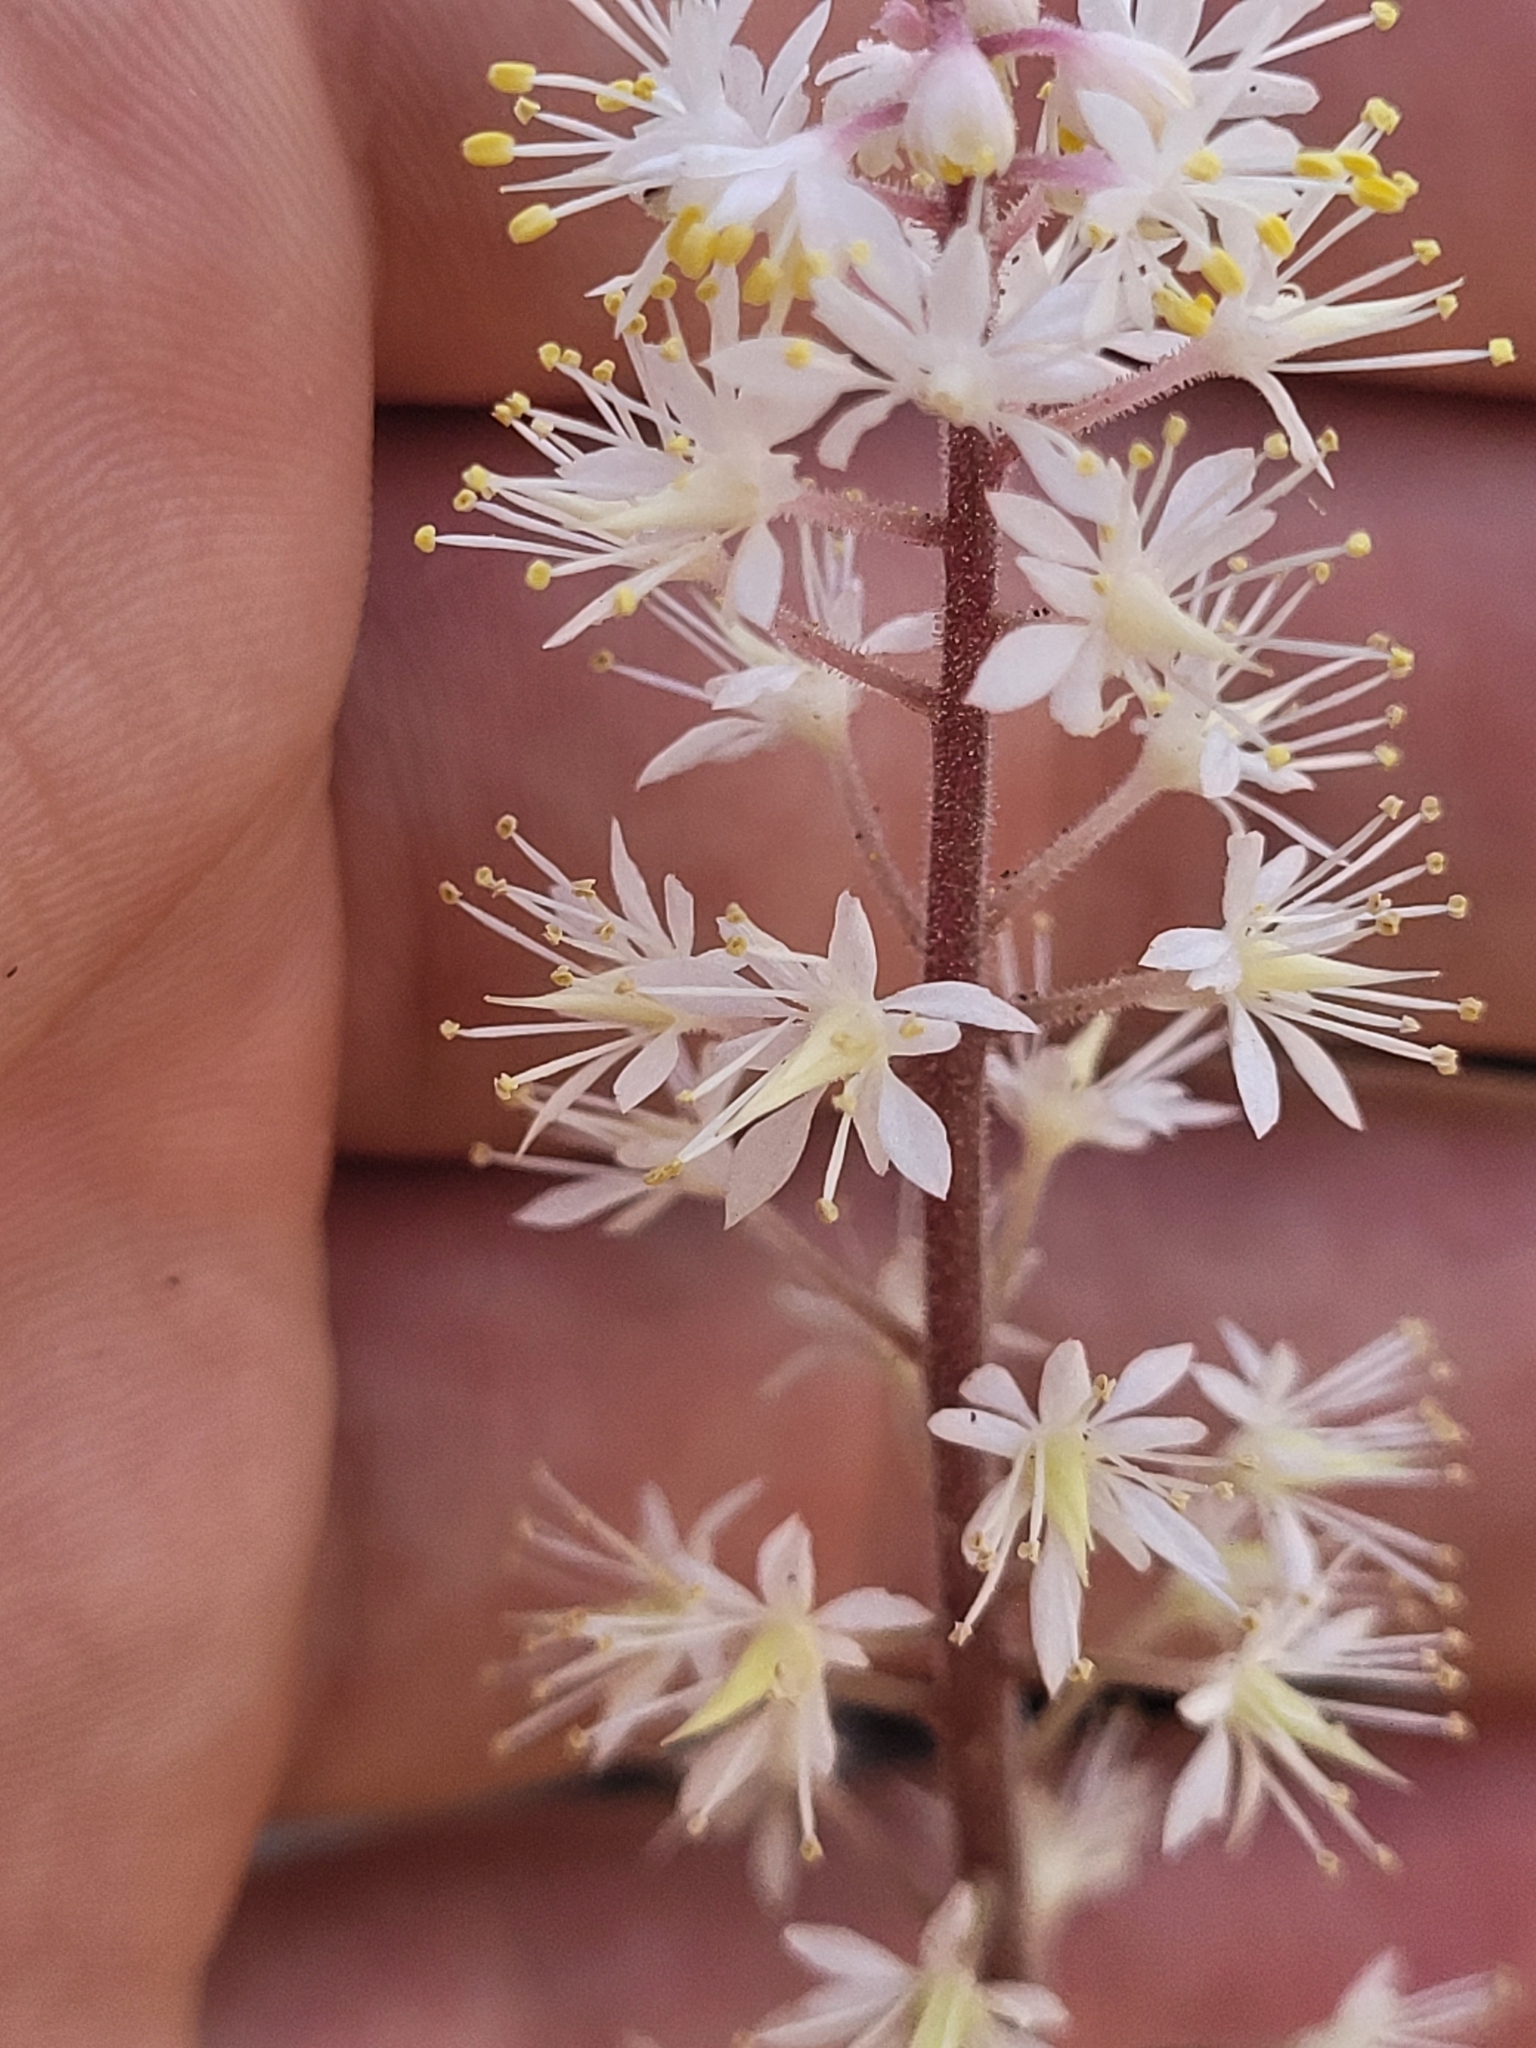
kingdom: Plantae
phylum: Tracheophyta
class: Magnoliopsida
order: Saxifragales
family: Saxifragaceae
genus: Tiarella
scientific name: Tiarella cordifolia
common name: Foamflower
